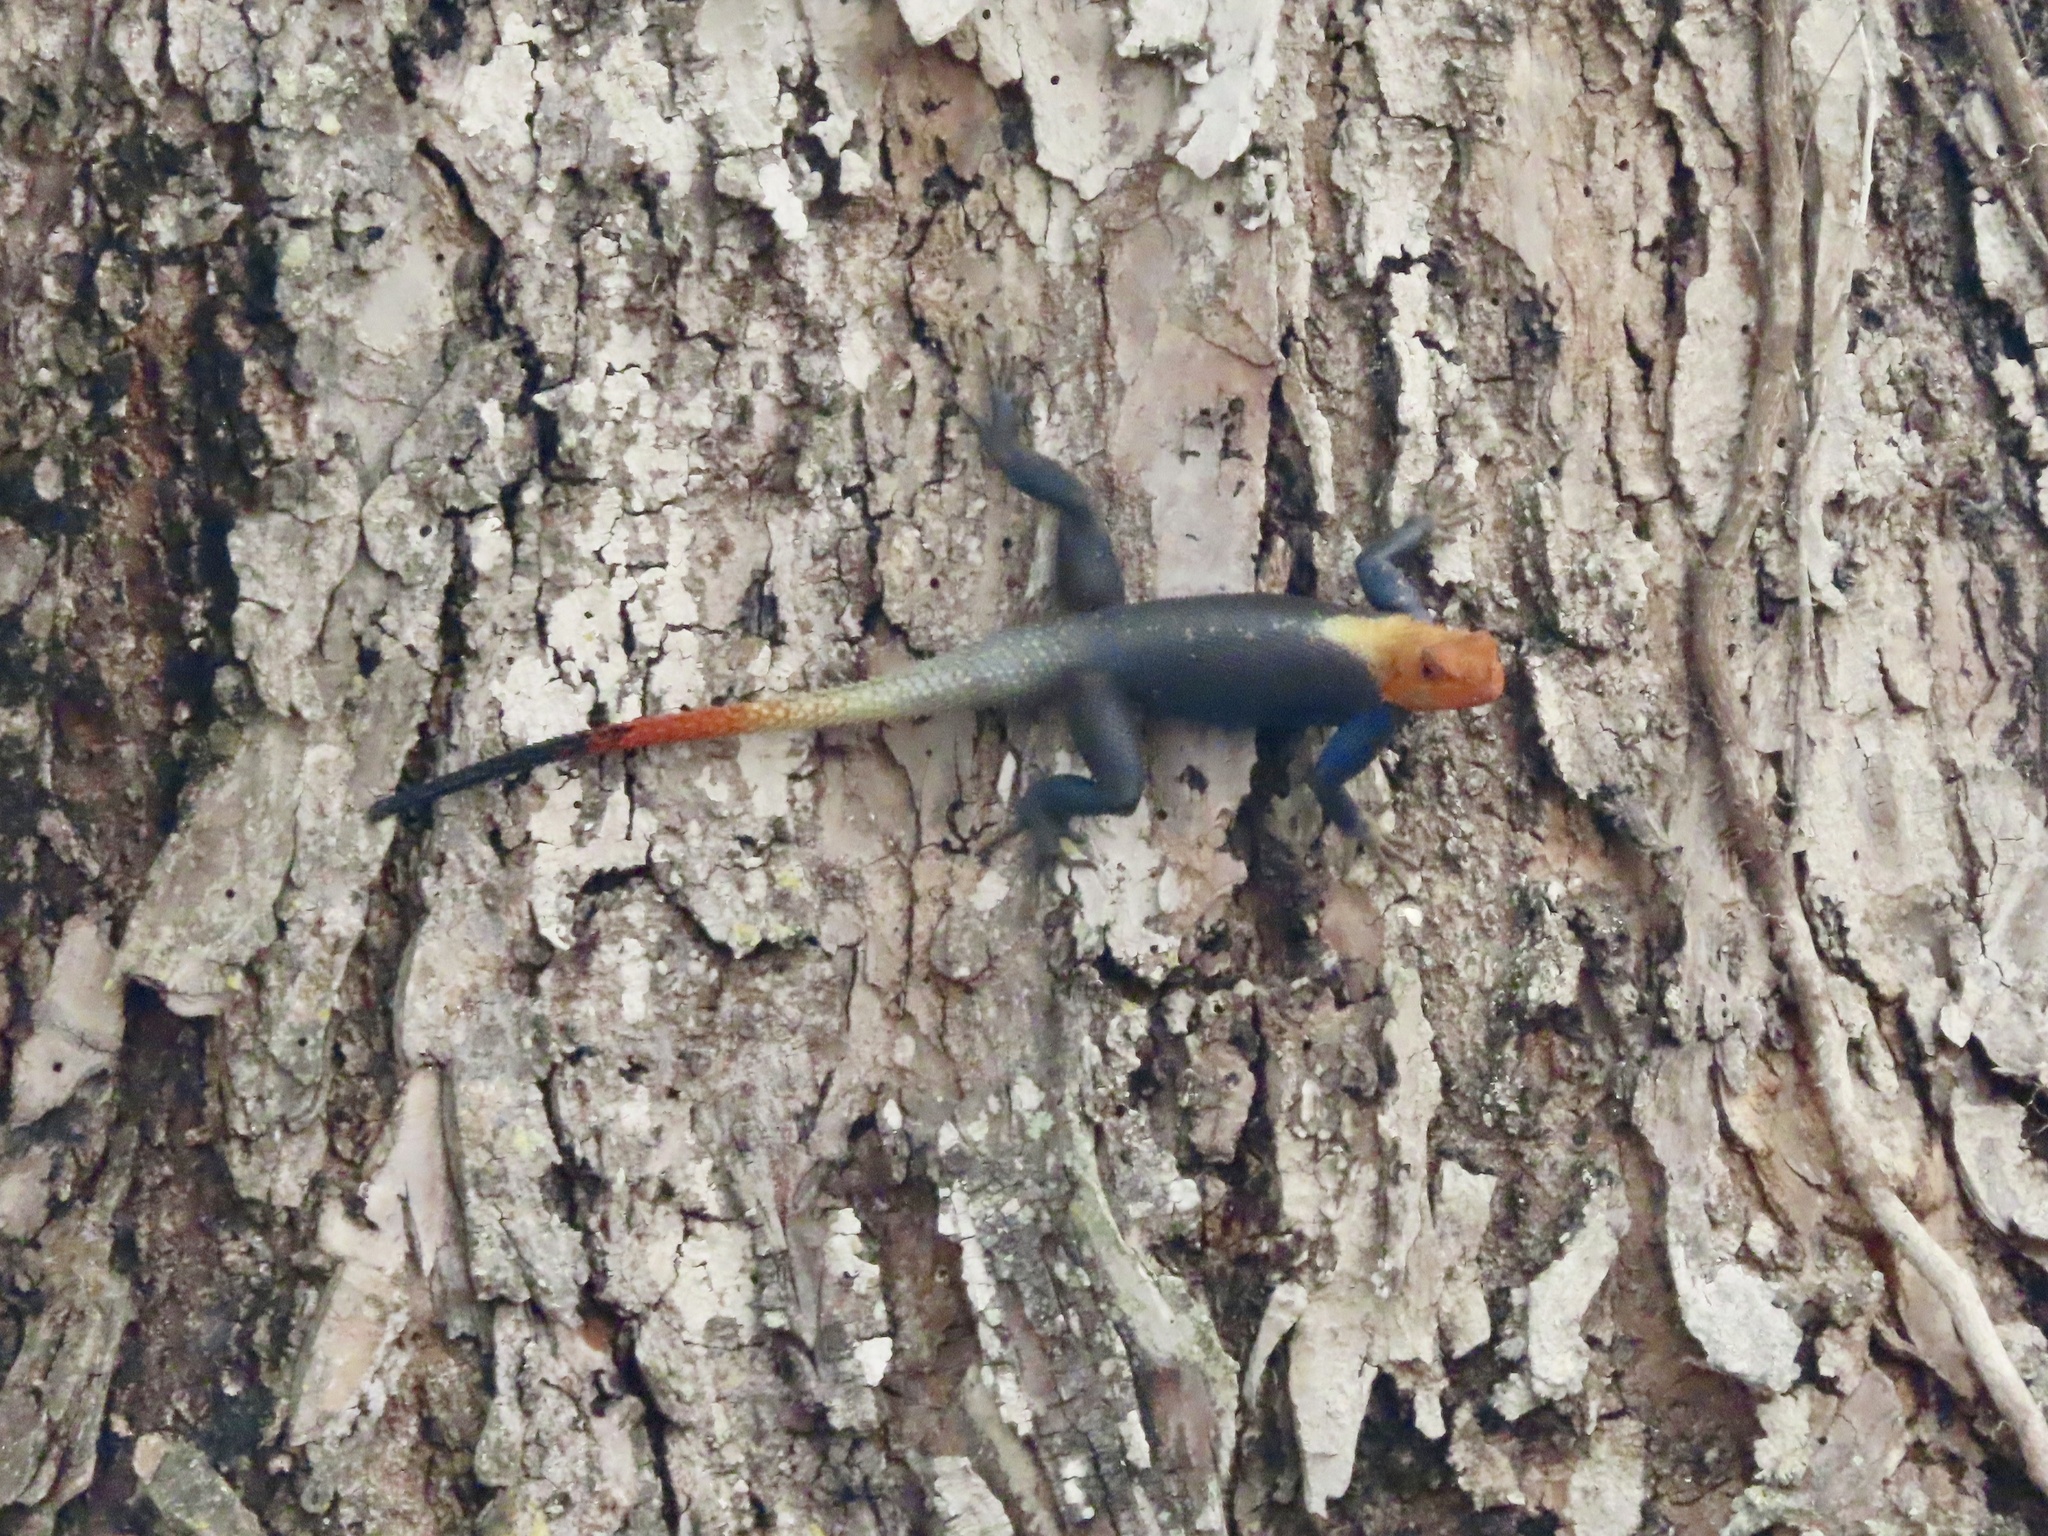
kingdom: Animalia
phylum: Chordata
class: Squamata
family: Agamidae
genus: Agama
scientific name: Agama picticauda
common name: Red-headed agama
